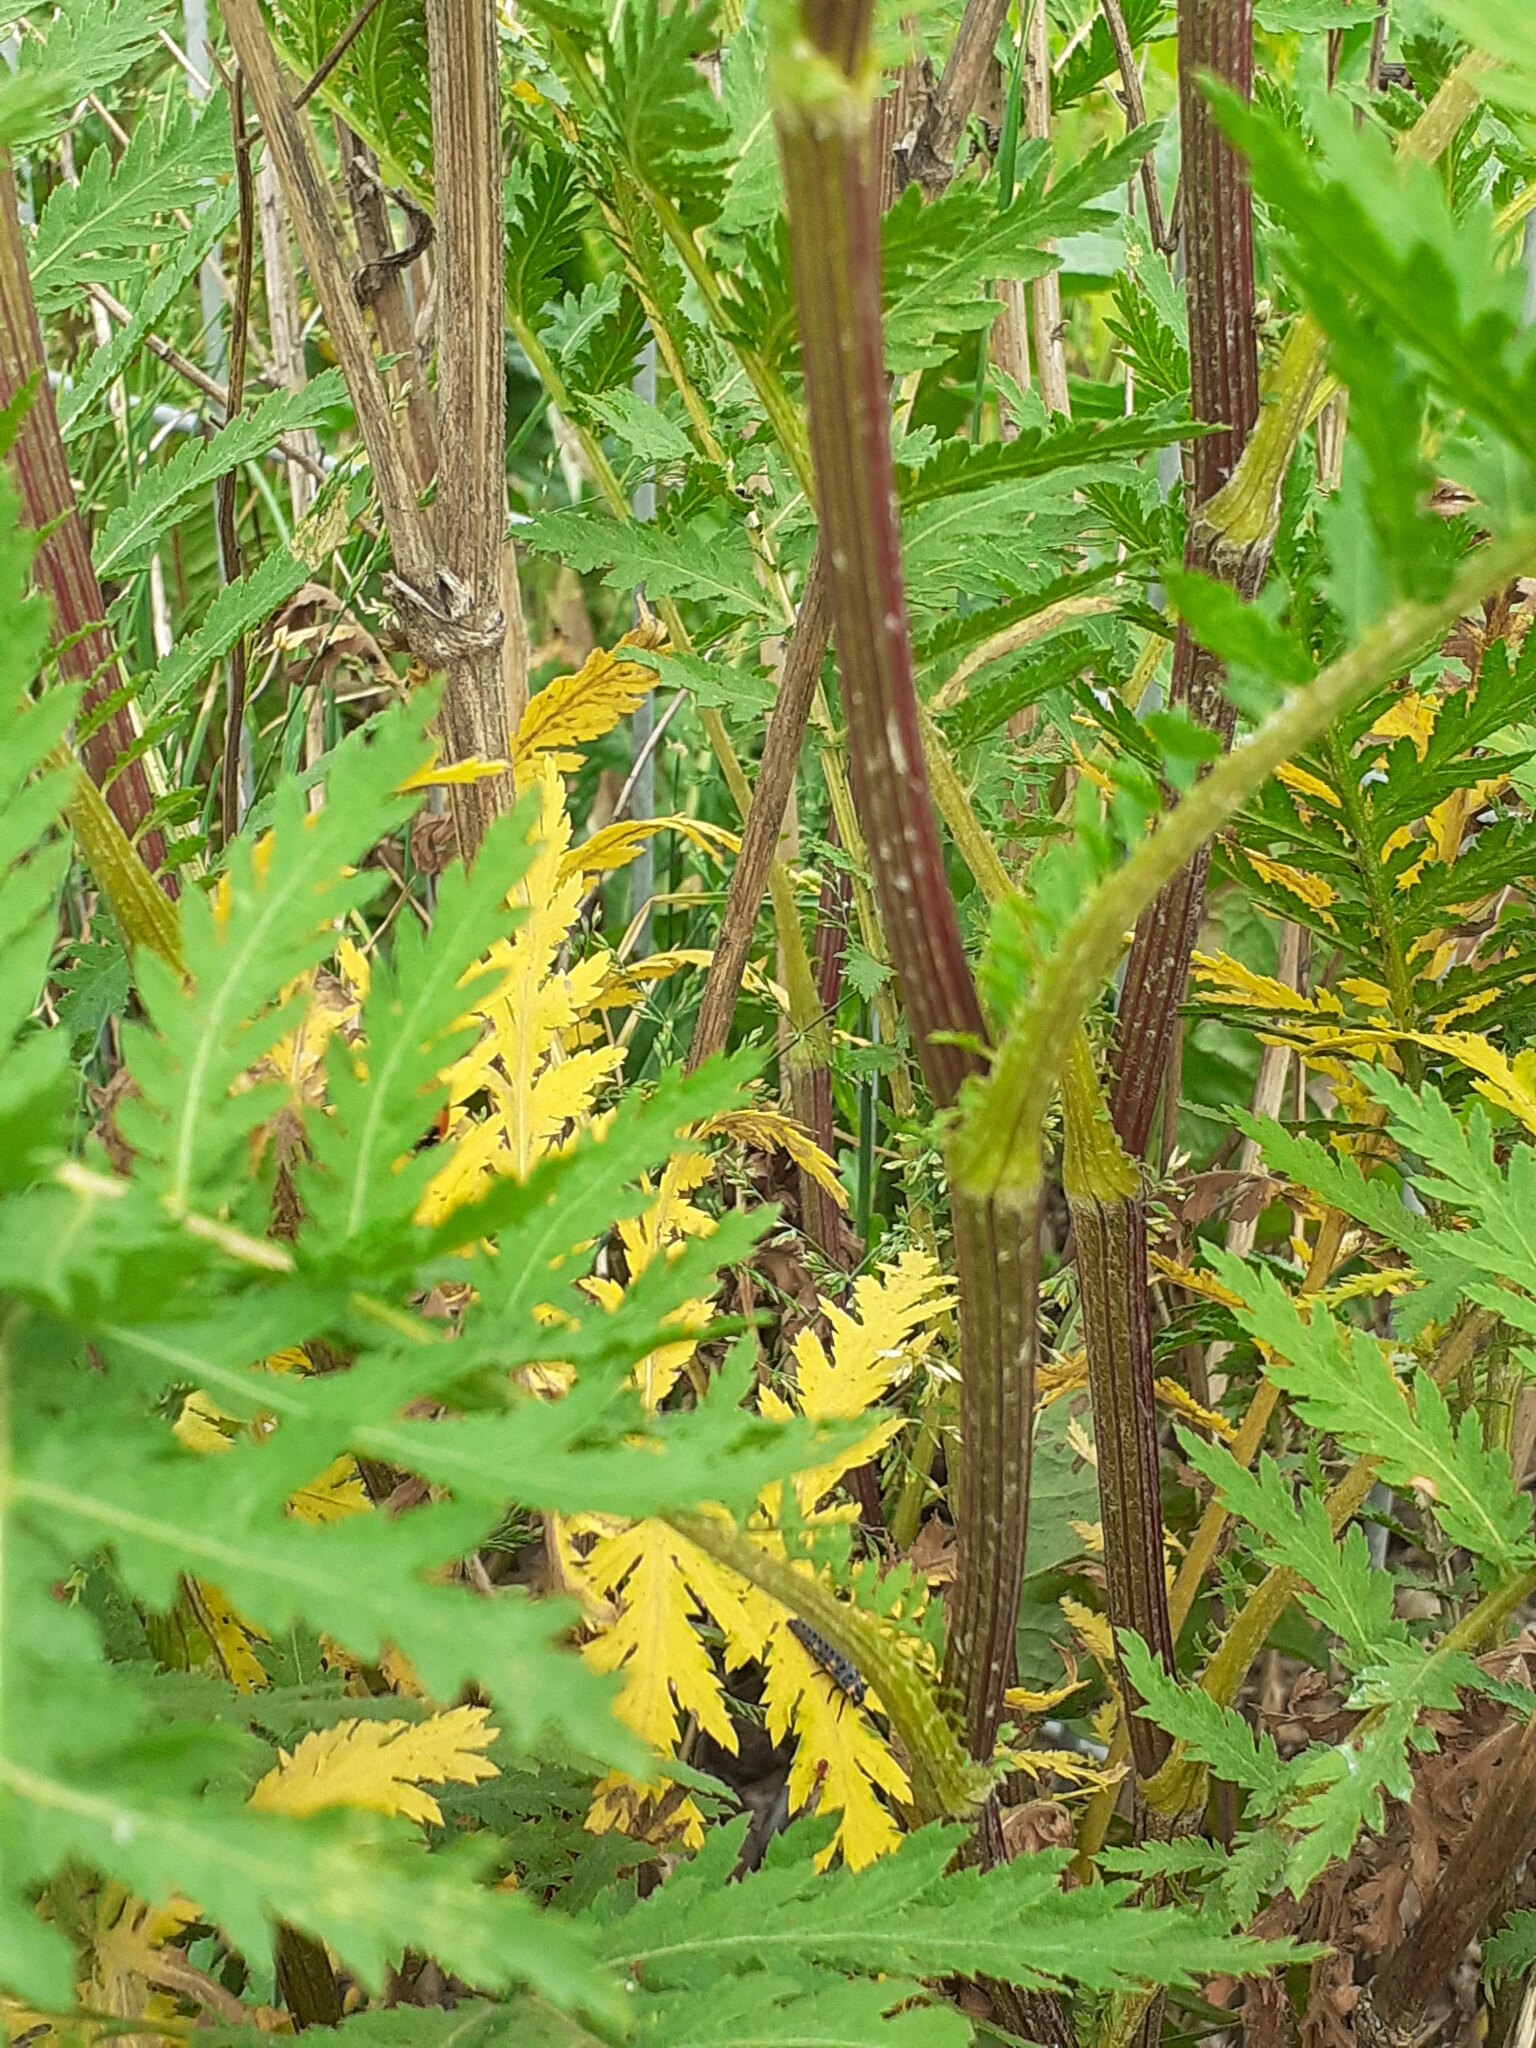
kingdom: Plantae
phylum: Tracheophyta
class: Magnoliopsida
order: Asterales
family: Asteraceae
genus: Tanacetum
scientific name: Tanacetum vulgare
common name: Common tansy
